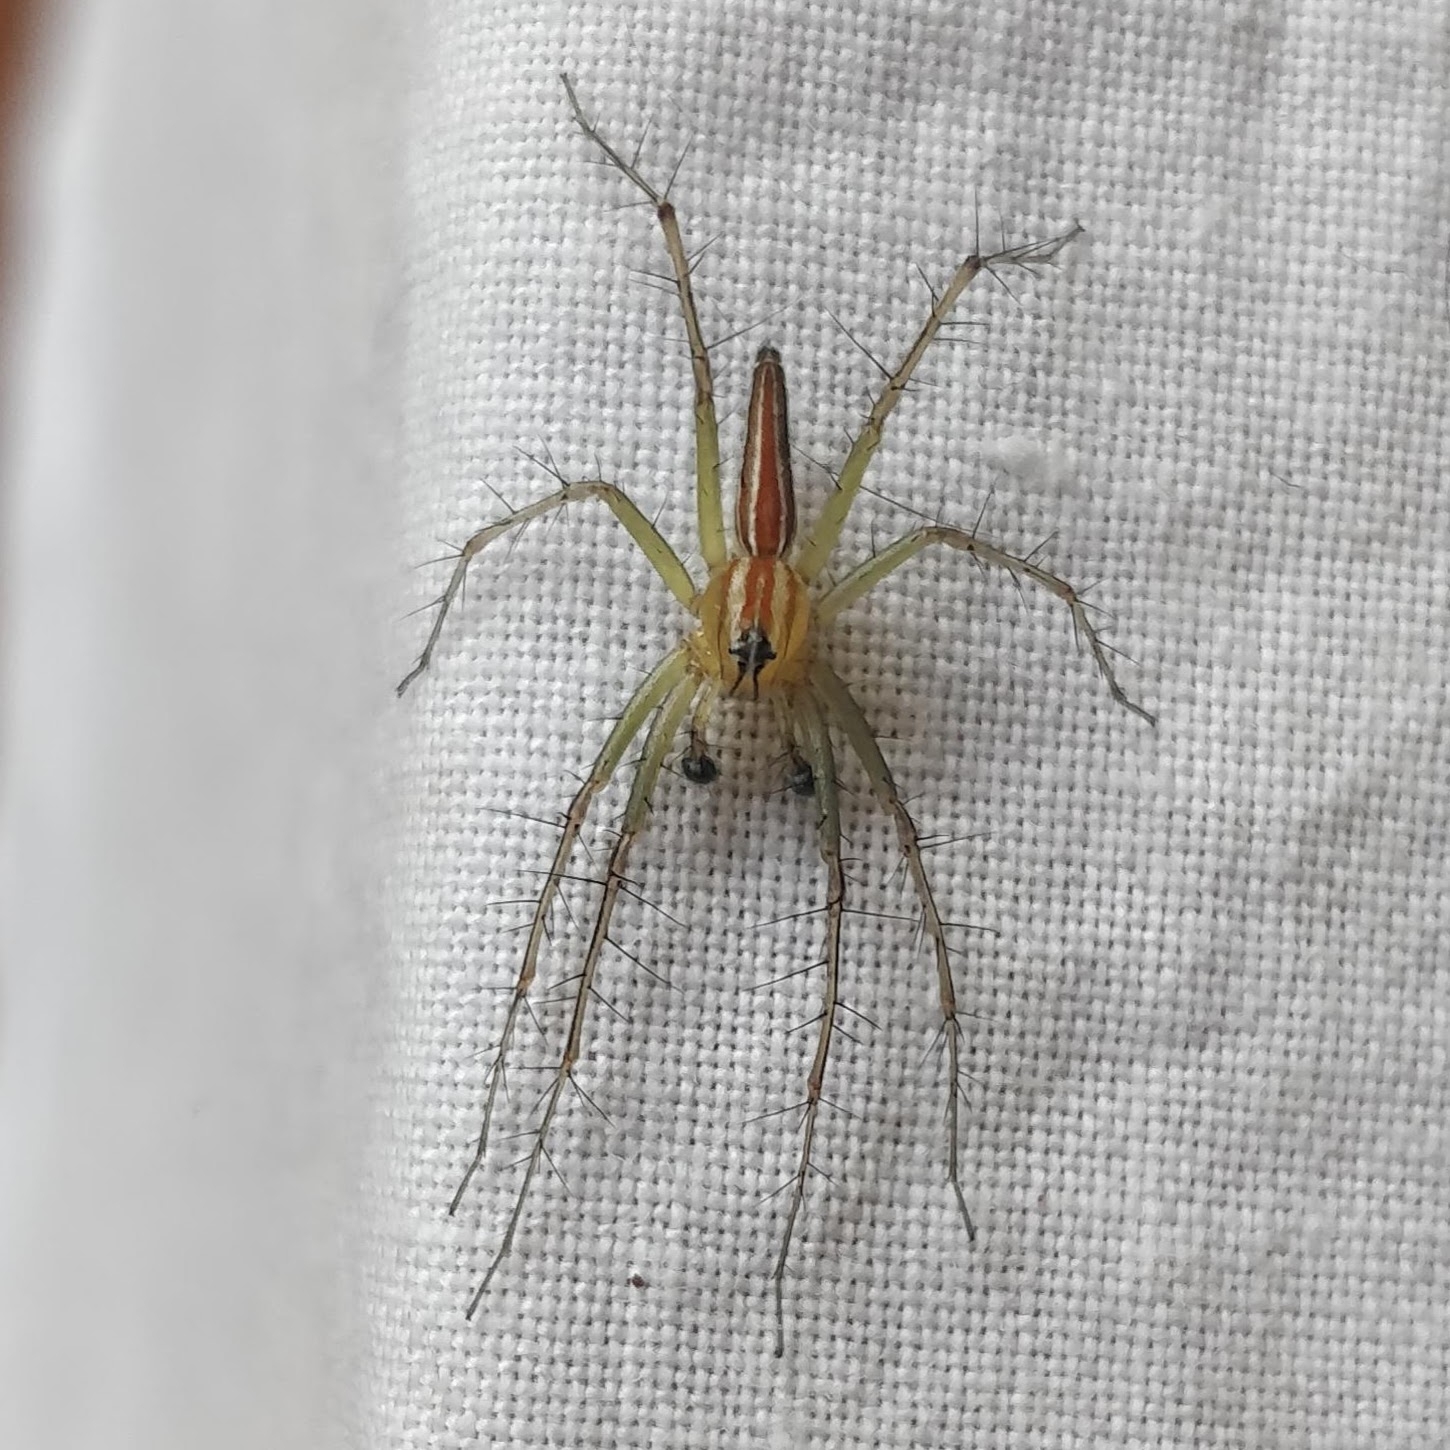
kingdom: Animalia
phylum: Arthropoda
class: Arachnida
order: Araneae
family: Oxyopidae
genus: Oxyopes
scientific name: Oxyopes macilentus
